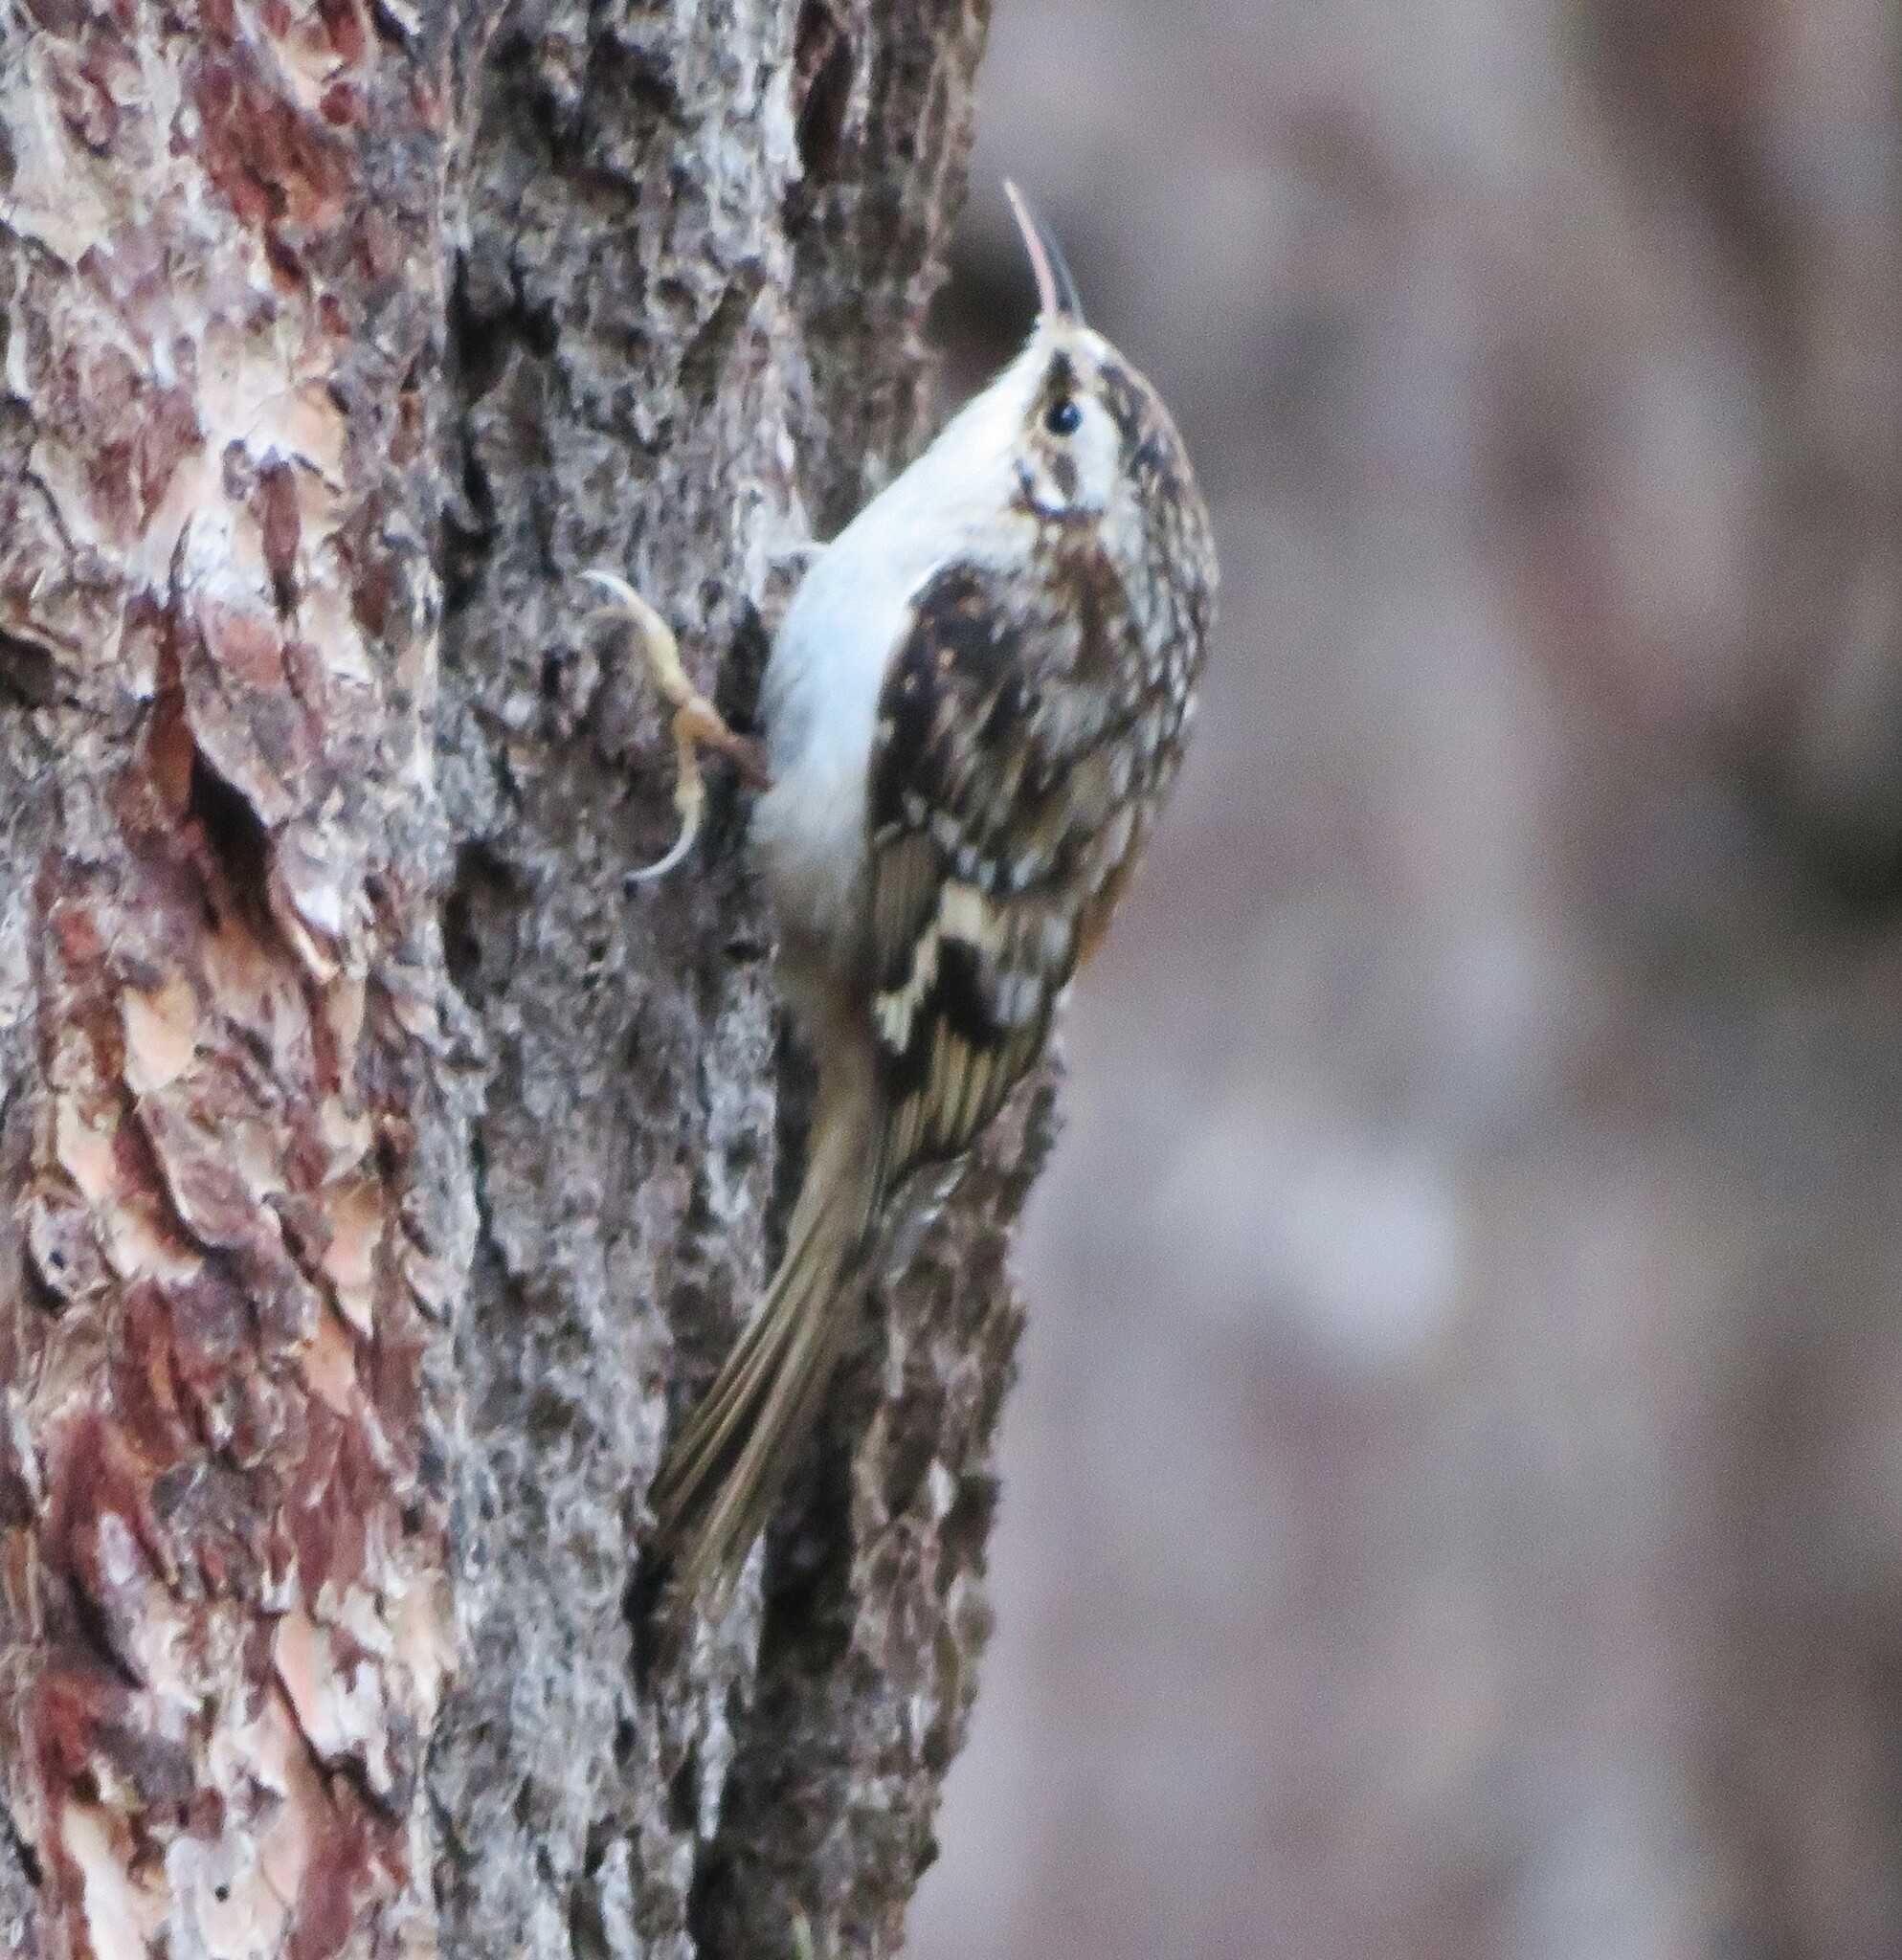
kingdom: Animalia
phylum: Chordata
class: Aves
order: Passeriformes
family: Certhiidae
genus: Certhia
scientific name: Certhia americana
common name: Brown creeper
